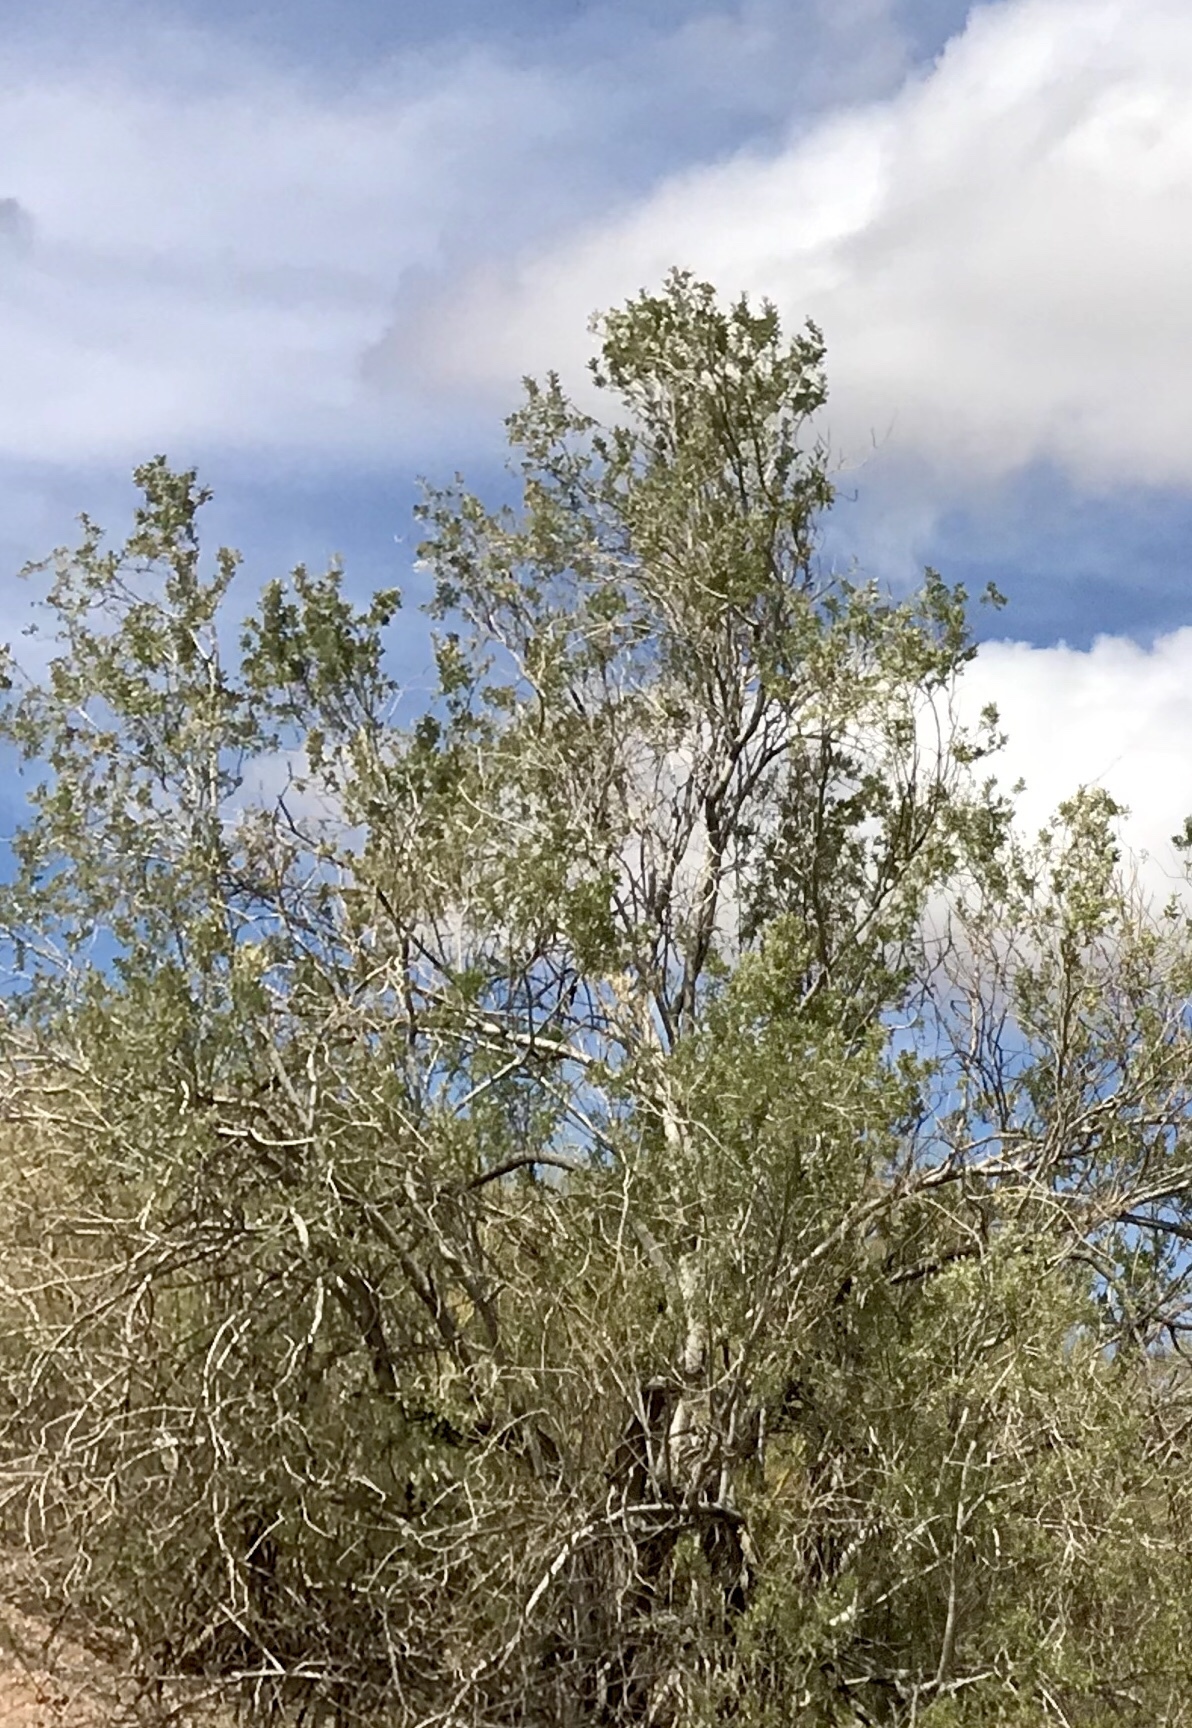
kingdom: Plantae
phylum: Tracheophyta
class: Magnoliopsida
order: Fabales
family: Fabaceae
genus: Olneya
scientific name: Olneya tesota
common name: Desert ironwood
